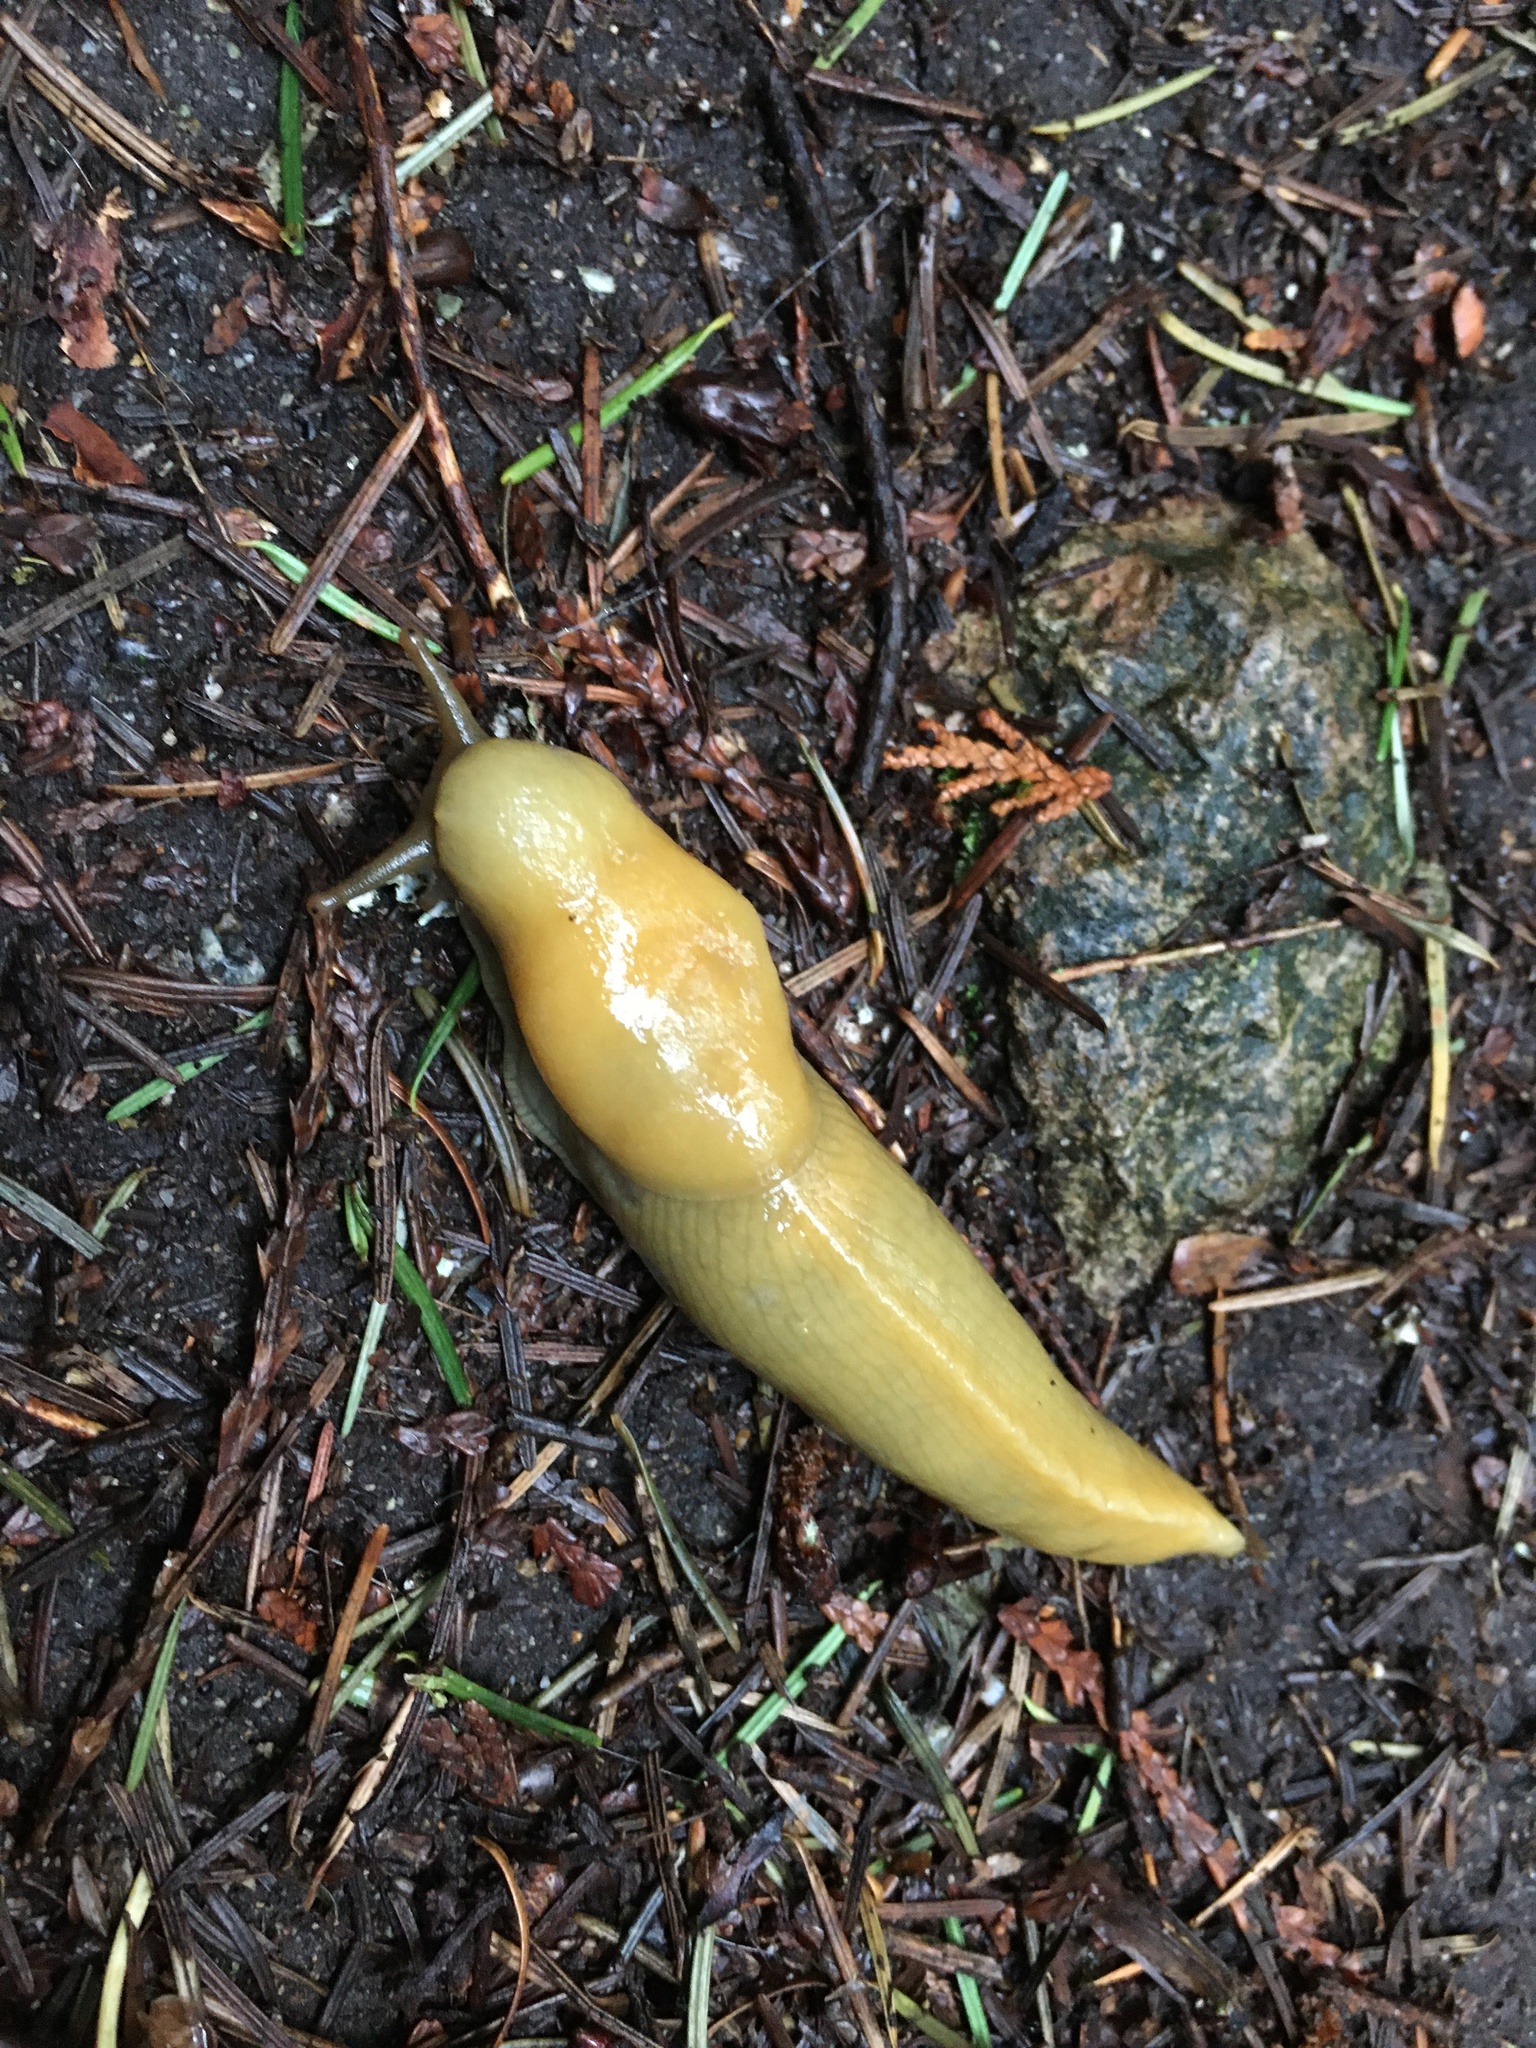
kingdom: Animalia
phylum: Mollusca
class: Gastropoda
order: Stylommatophora
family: Ariolimacidae
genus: Ariolimax
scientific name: Ariolimax columbianus
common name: Pacific banana slug
